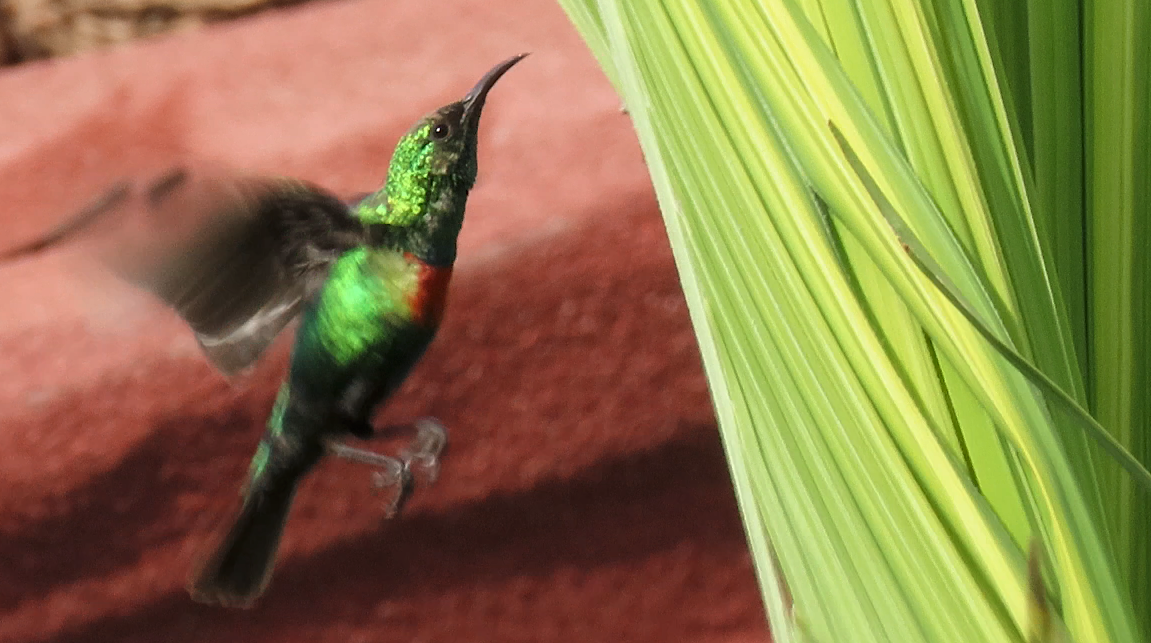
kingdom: Animalia
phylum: Chordata
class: Aves
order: Passeriformes
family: Nectariniidae
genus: Cinnyris
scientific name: Cinnyris pulchellus
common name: Beautiful sunbird
